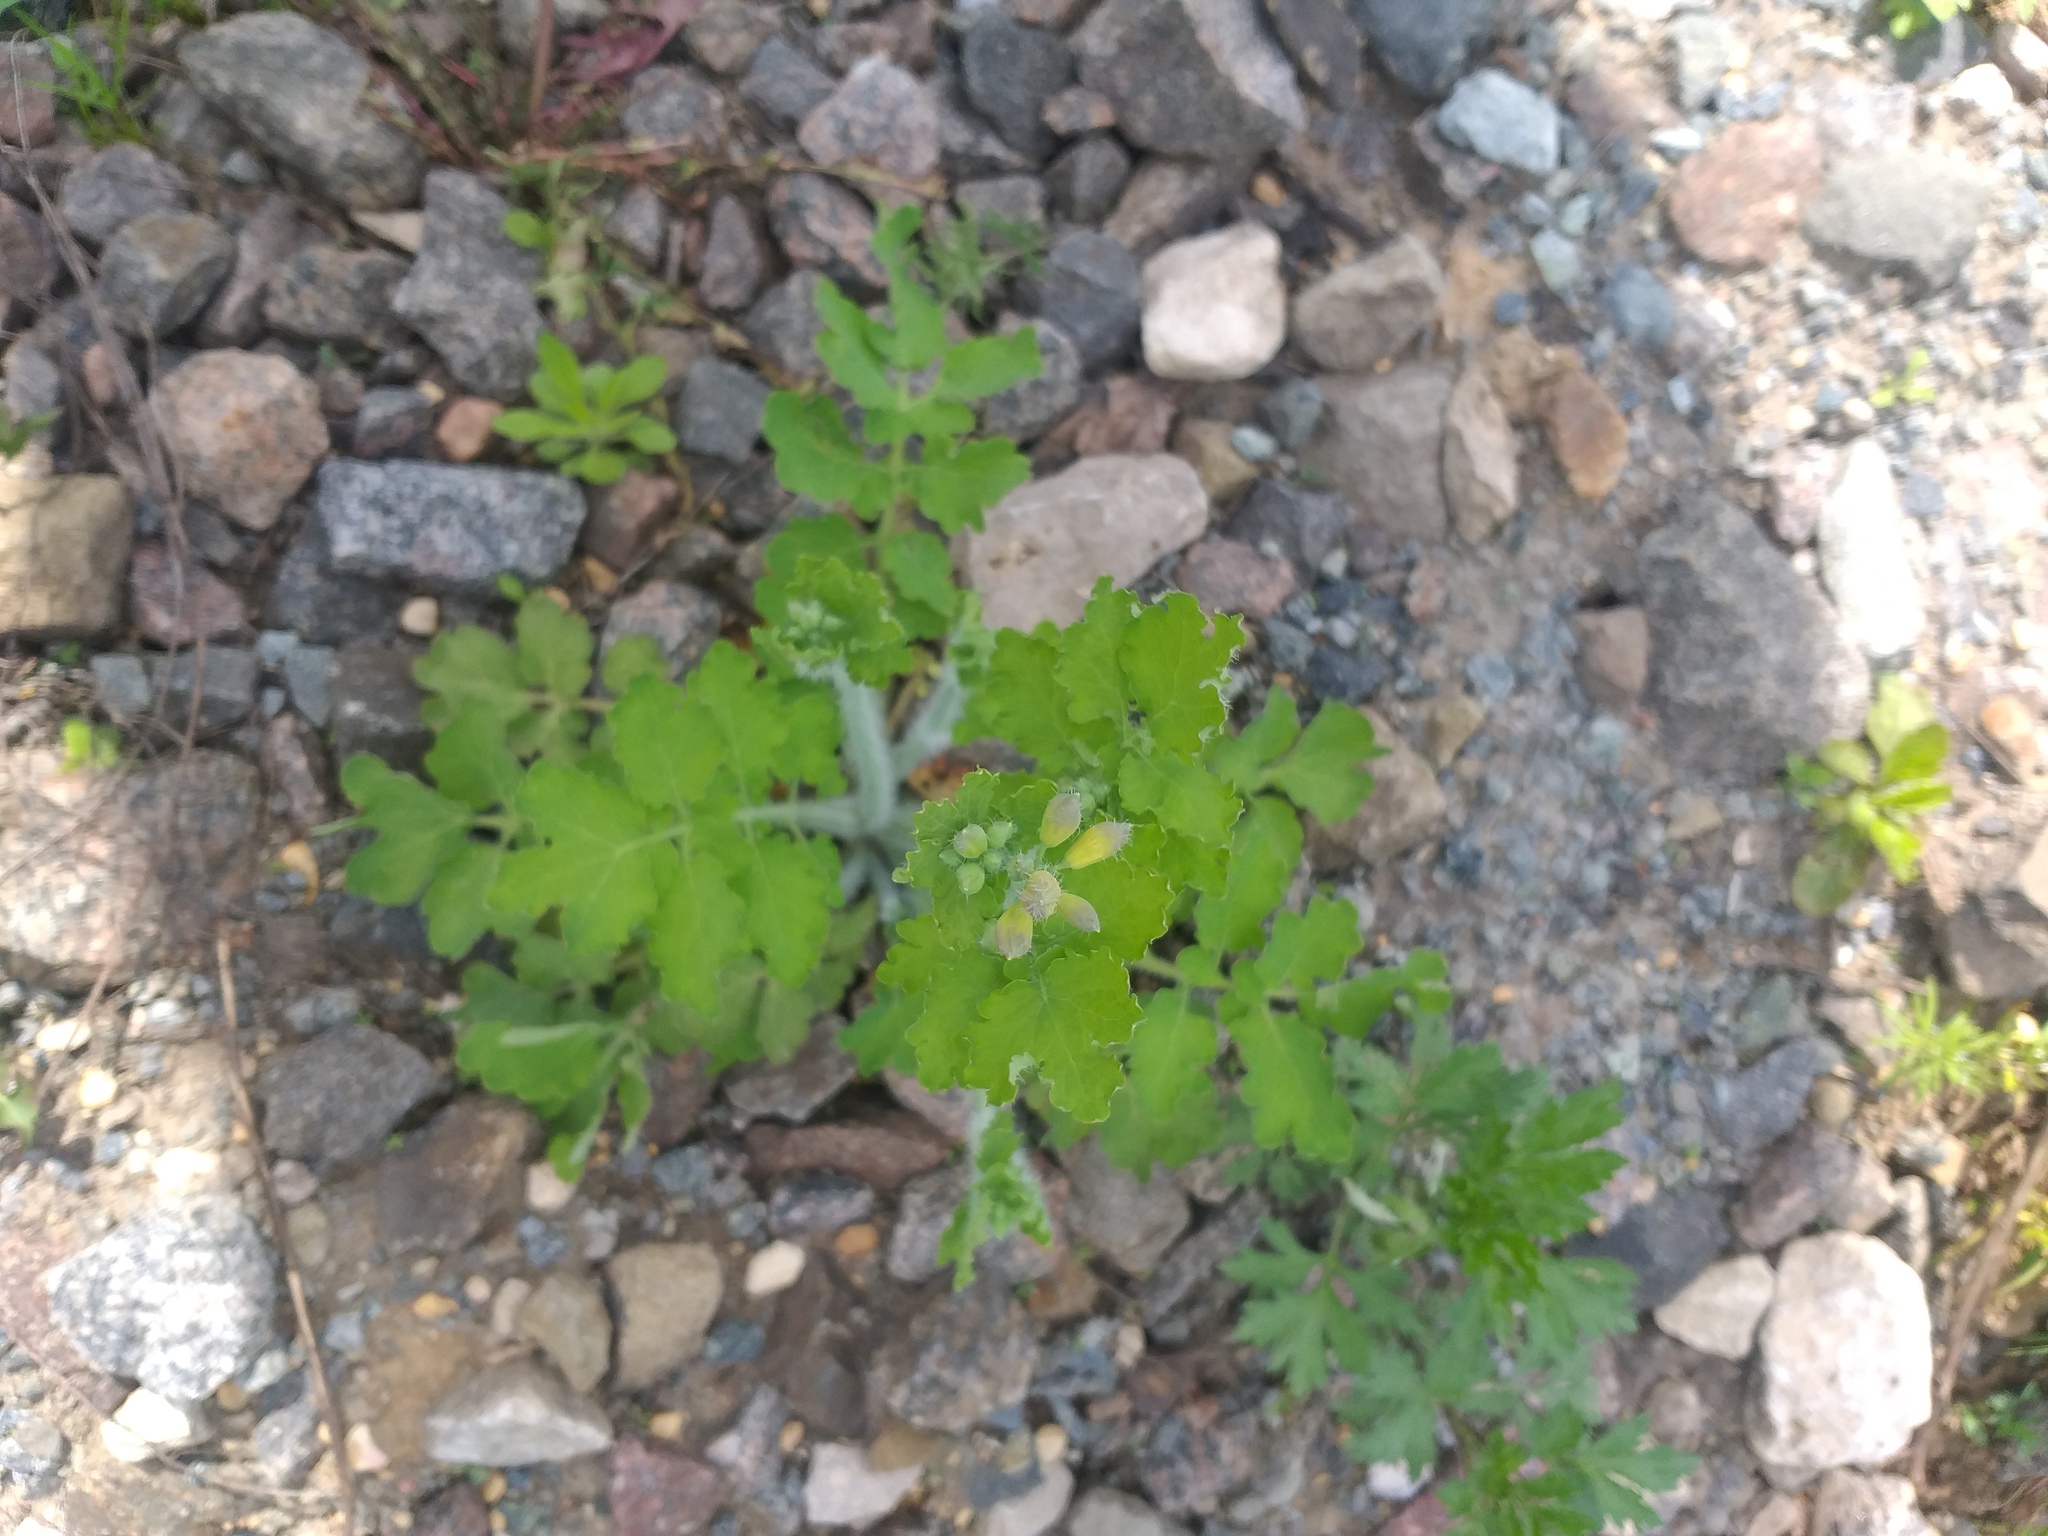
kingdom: Plantae
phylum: Tracheophyta
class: Magnoliopsida
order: Ranunculales
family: Papaveraceae
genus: Chelidonium
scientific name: Chelidonium majus
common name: Greater celandine
